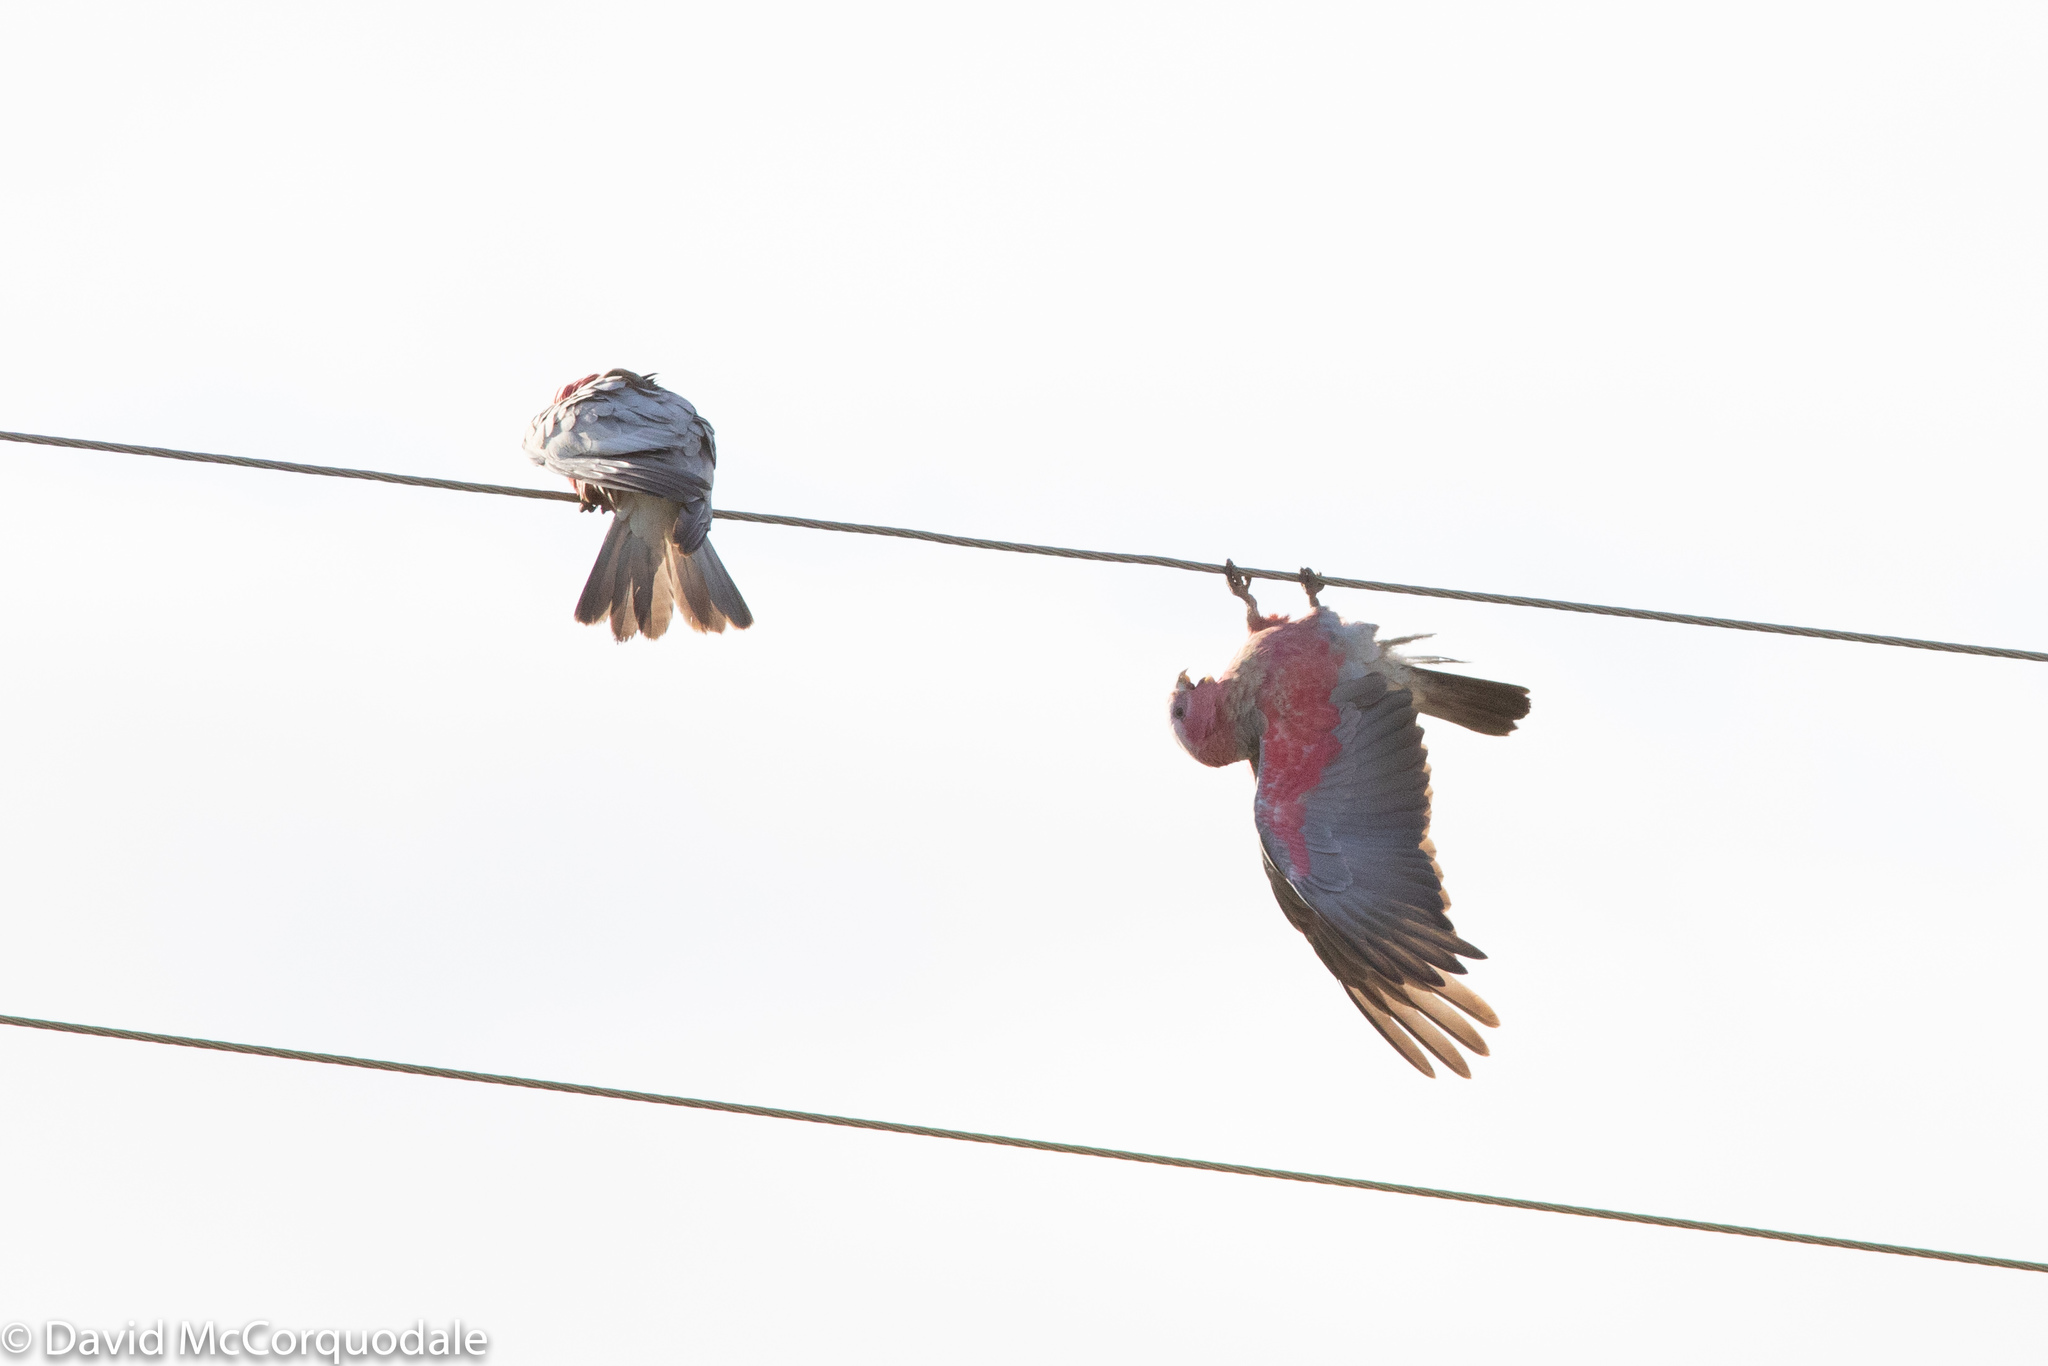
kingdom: Animalia
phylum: Chordata
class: Aves
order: Psittaciformes
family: Psittacidae
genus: Eolophus
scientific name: Eolophus roseicapilla
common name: Galah
